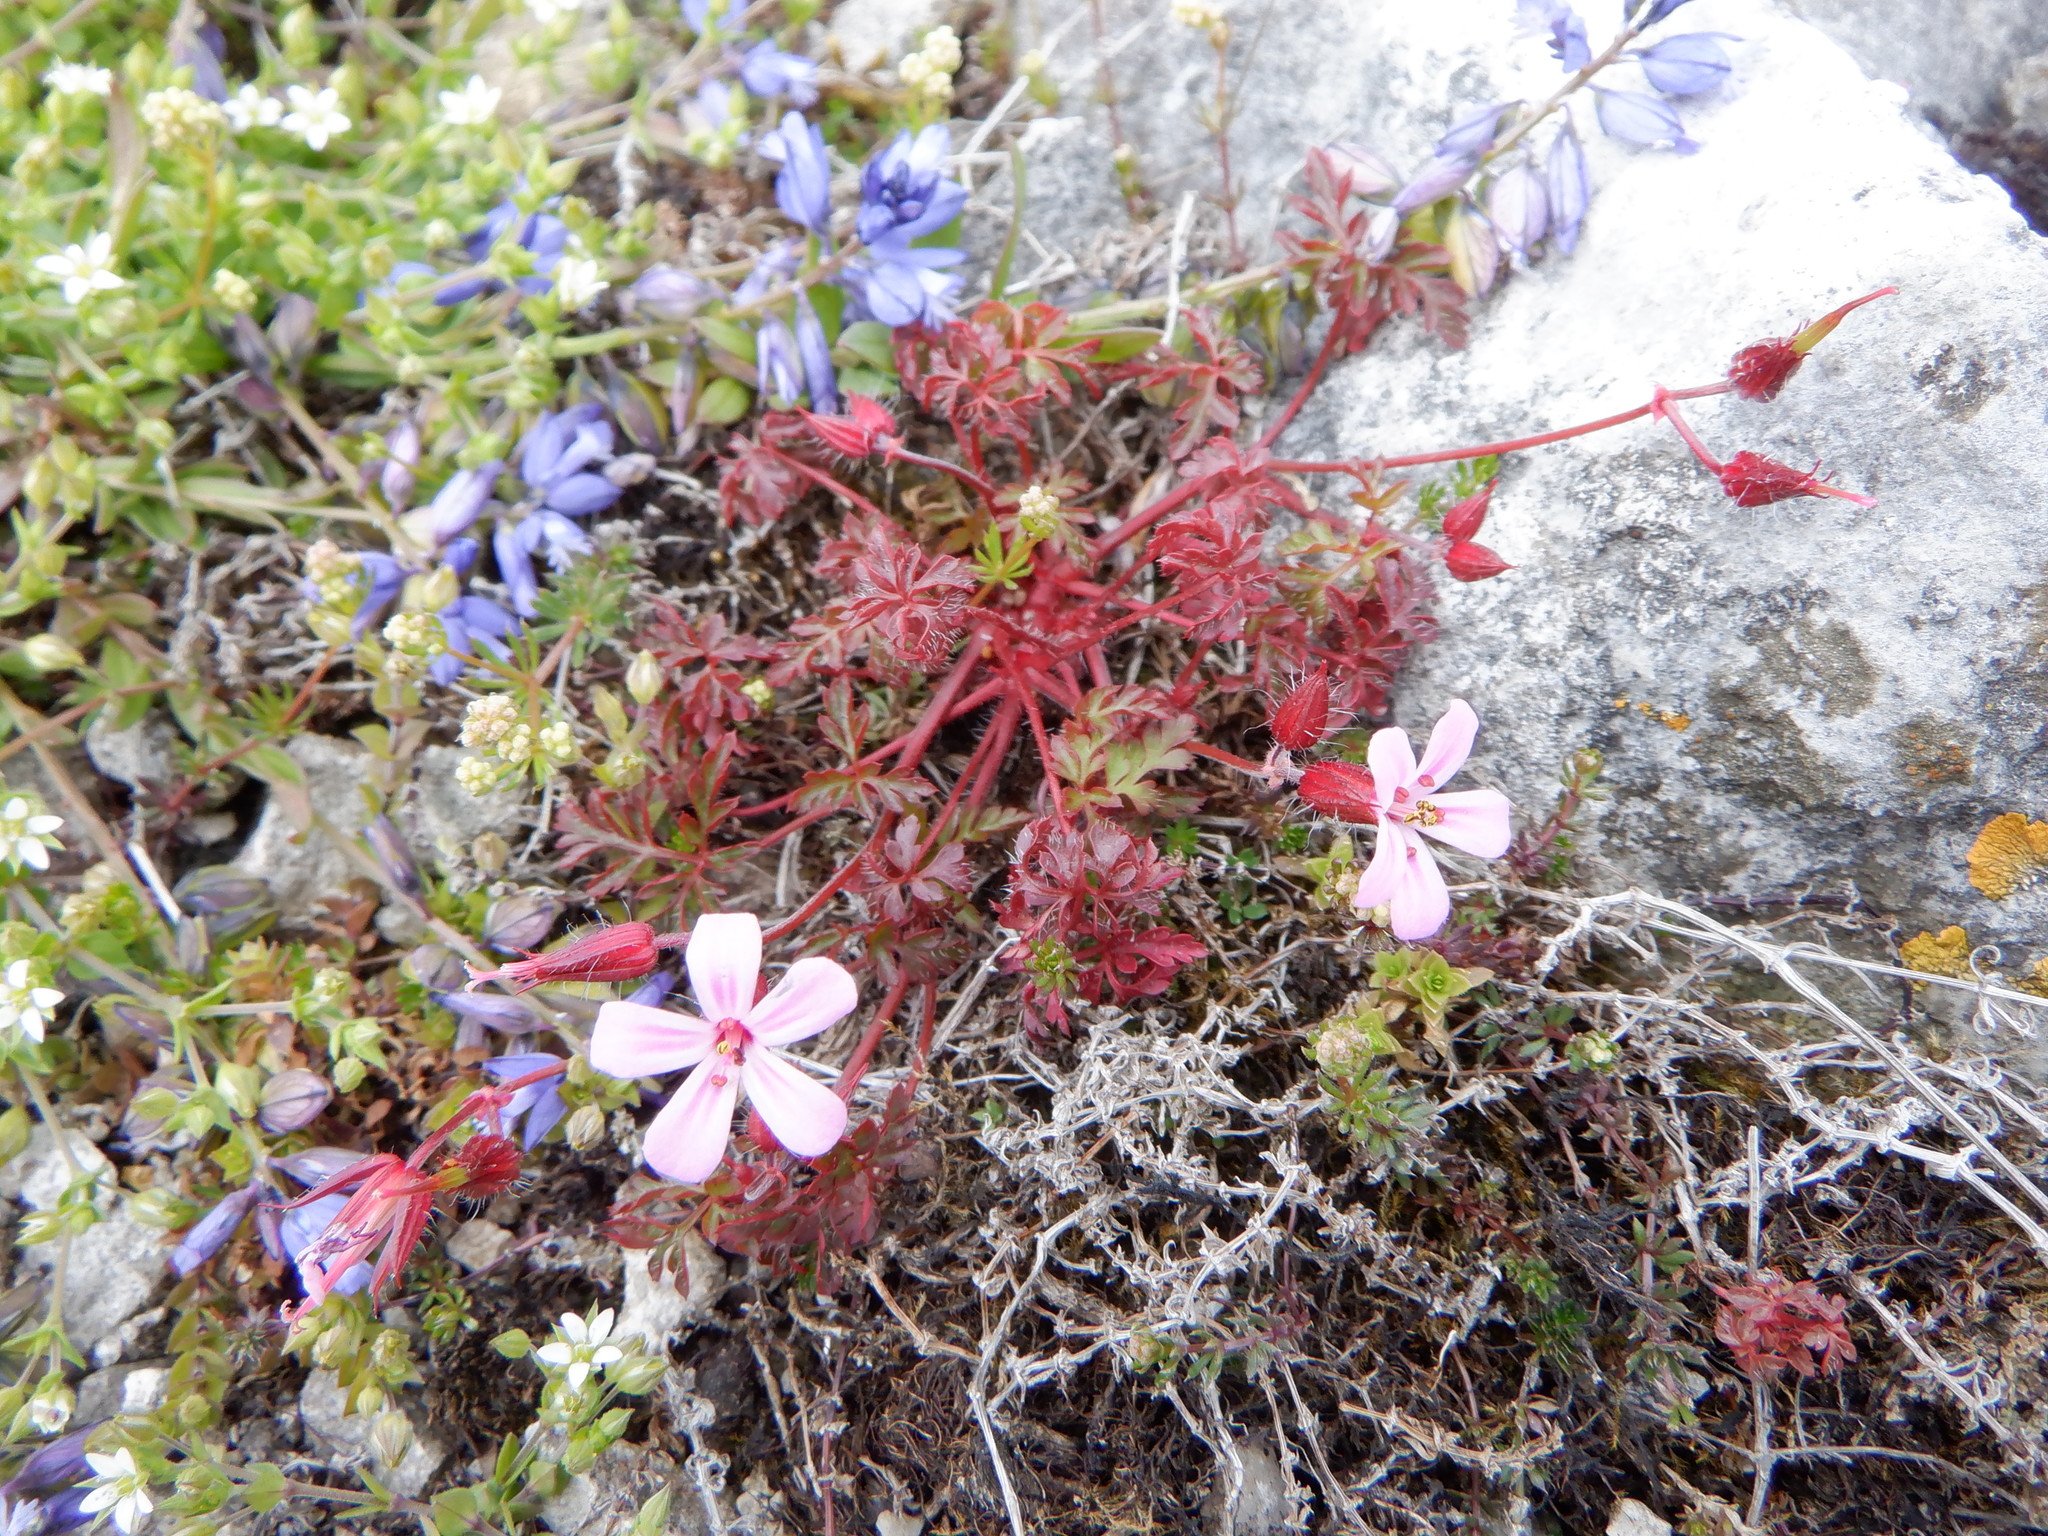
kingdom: Plantae
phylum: Tracheophyta
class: Magnoliopsida
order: Geraniales
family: Geraniaceae
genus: Geranium
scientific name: Geranium robertianum
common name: Herb-robert
